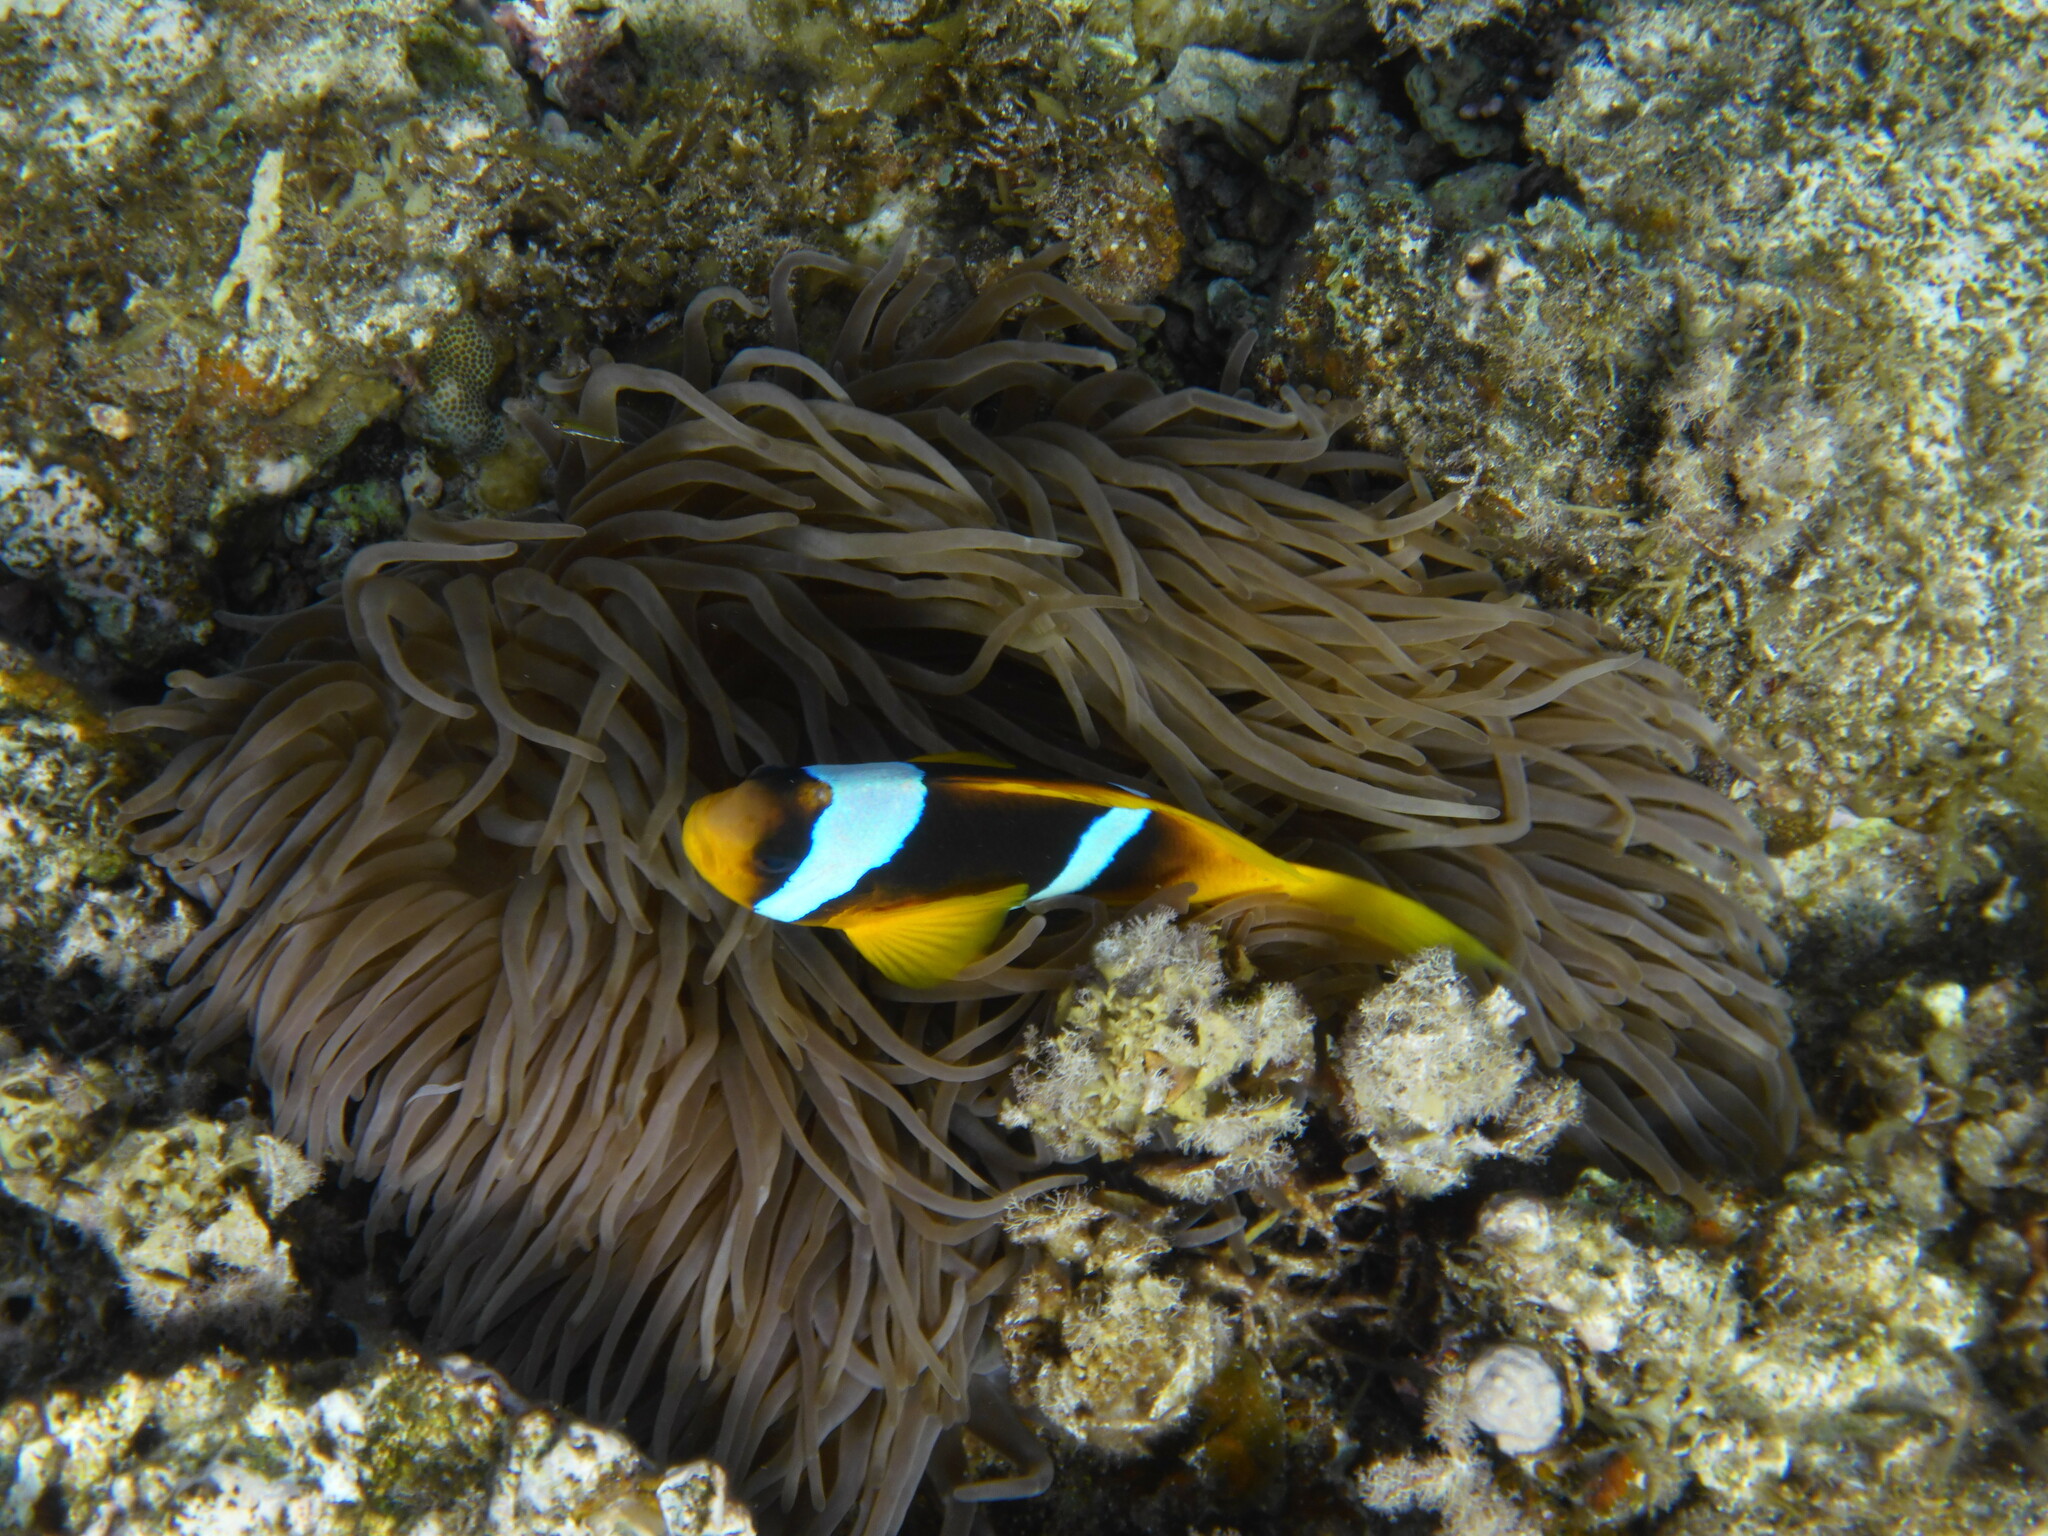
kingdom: Animalia
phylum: Chordata
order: Perciformes
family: Pomacentridae
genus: Amphiprion
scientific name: Amphiprion bicinctus
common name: Two-banded anemonefish
